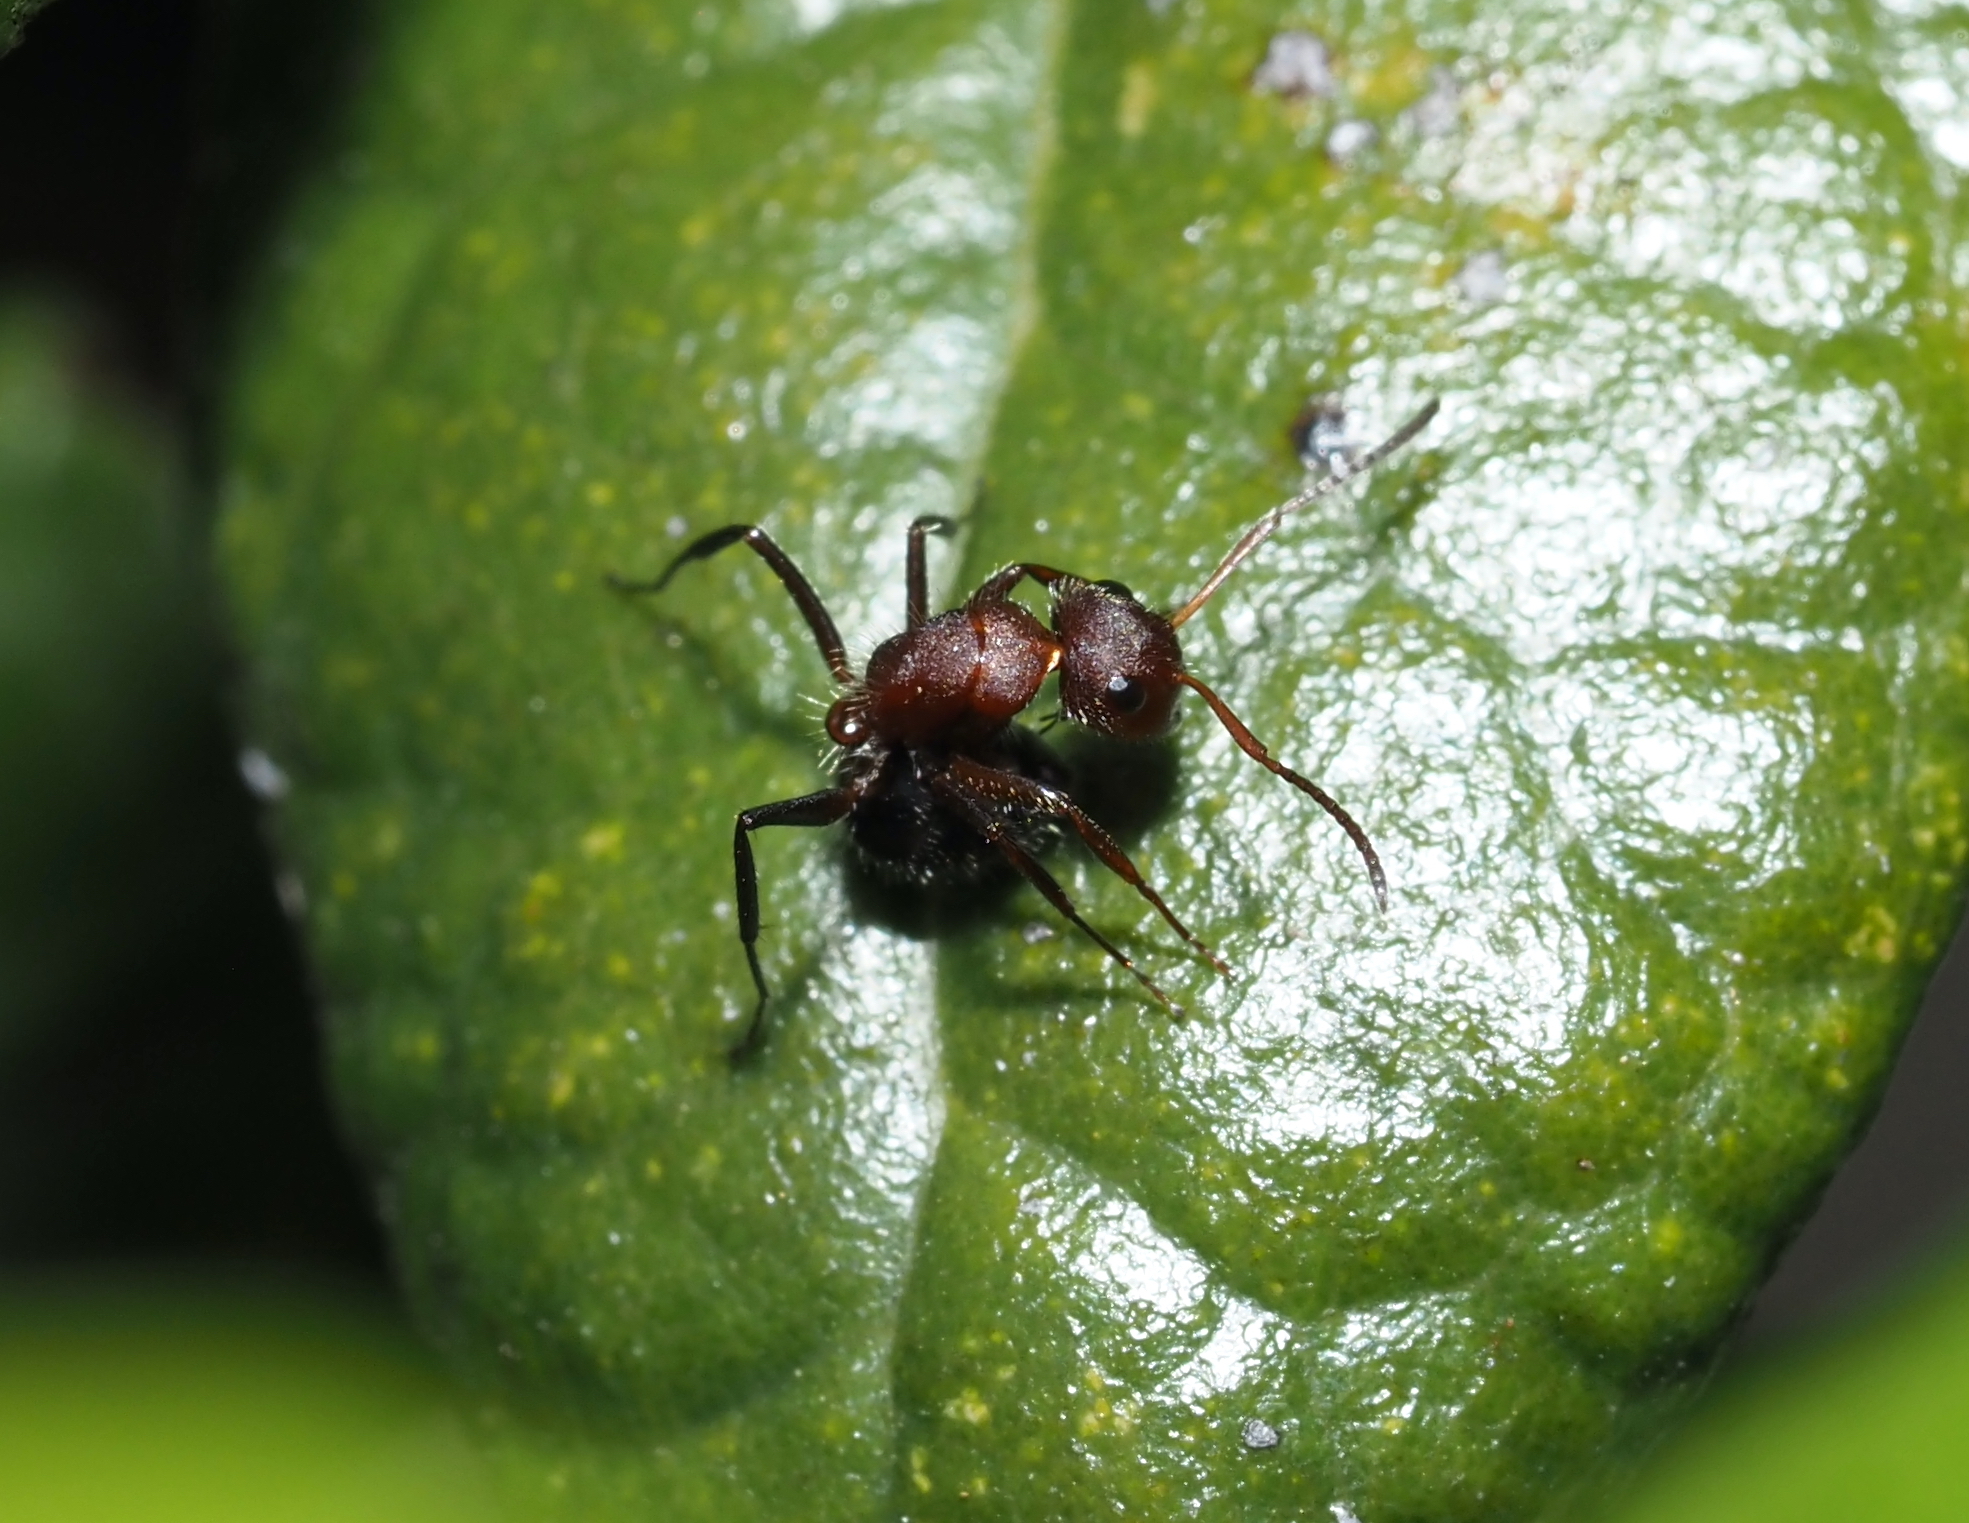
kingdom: Animalia
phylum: Arthropoda
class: Insecta
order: Hymenoptera
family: Formicidae
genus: Camponotus
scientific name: Camponotus planatus
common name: Compact carpenter ant
